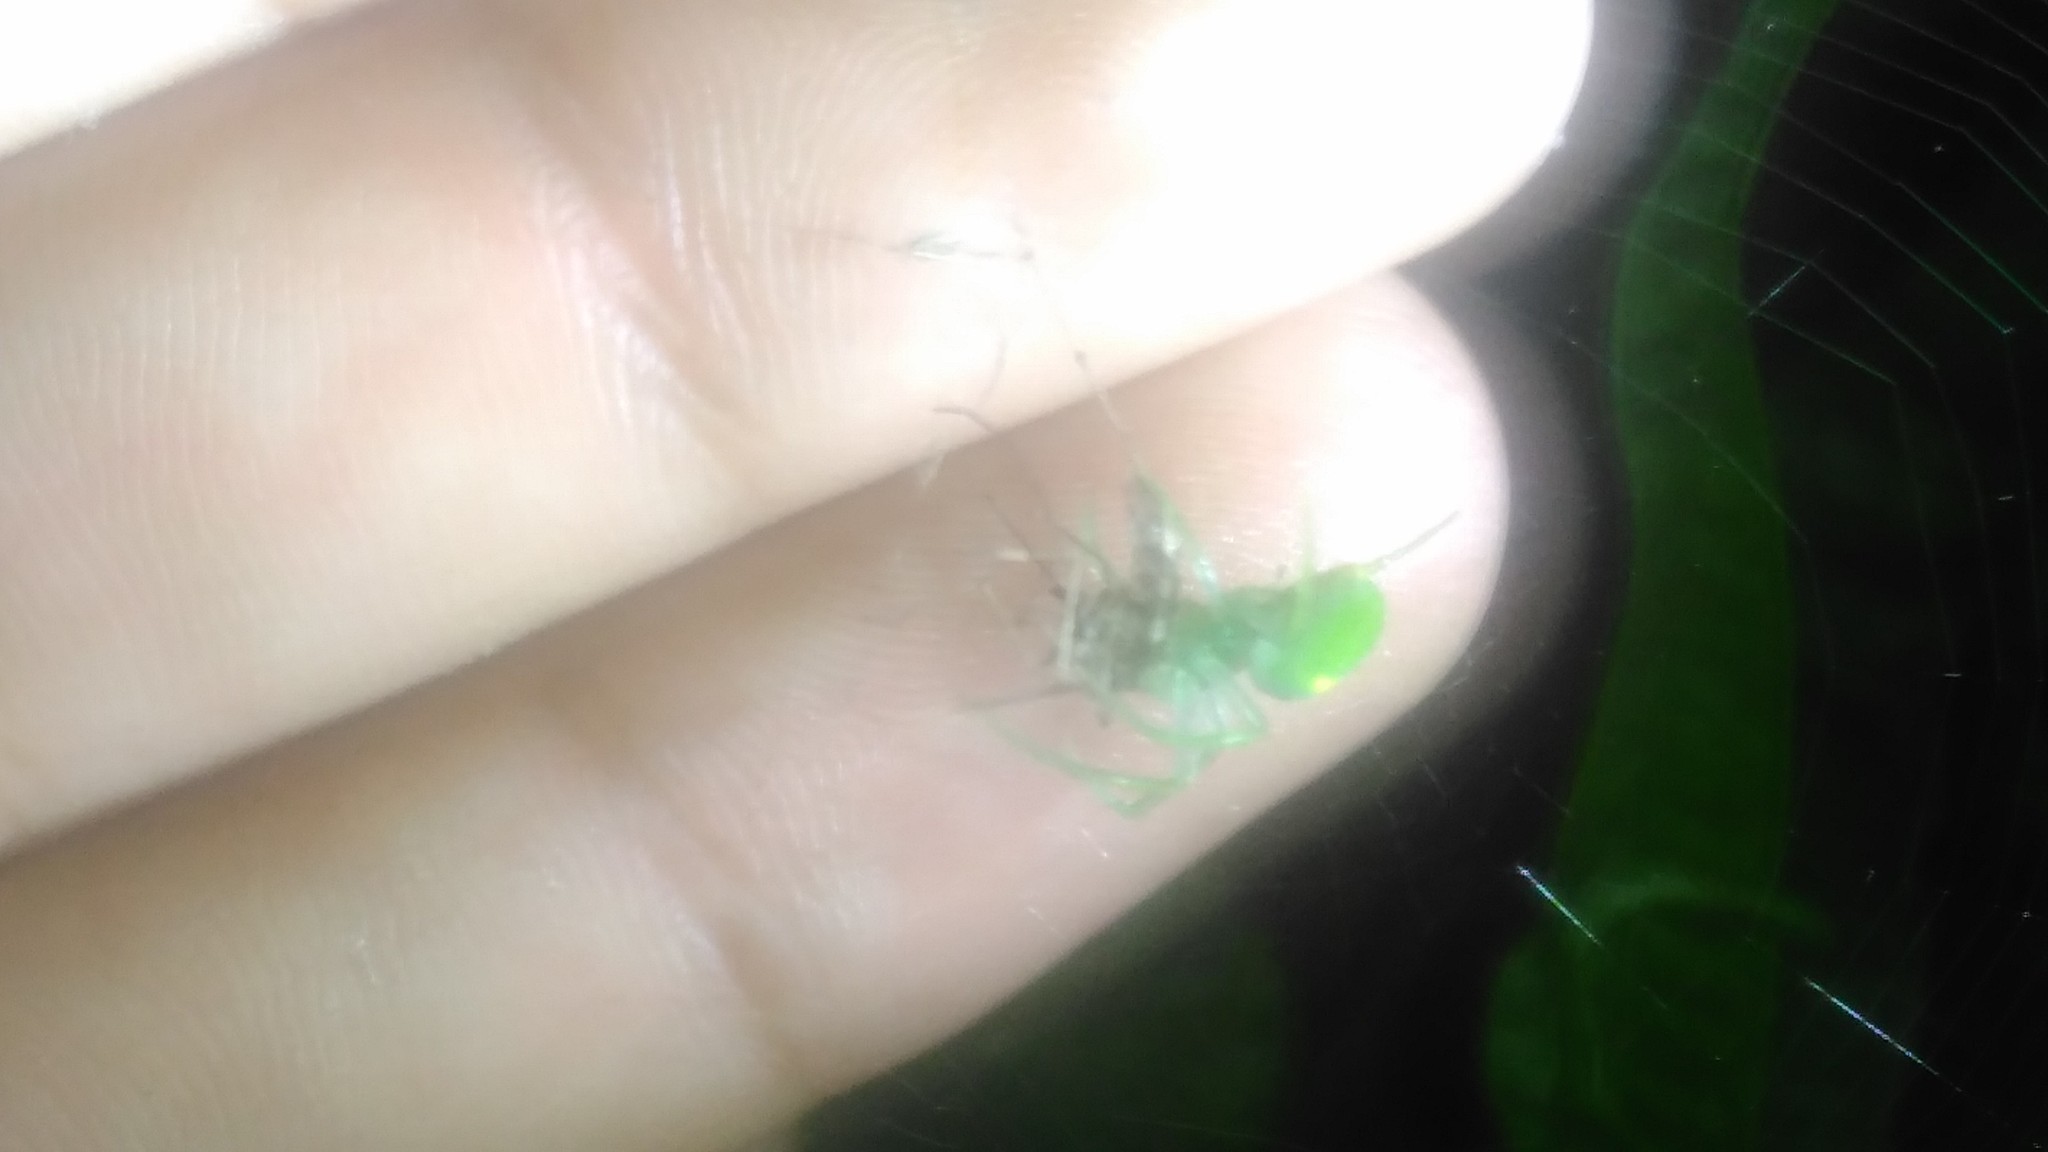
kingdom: Animalia
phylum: Arthropoda
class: Arachnida
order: Araneae
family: Araneidae
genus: Araneus
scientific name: Araneus uniformis
